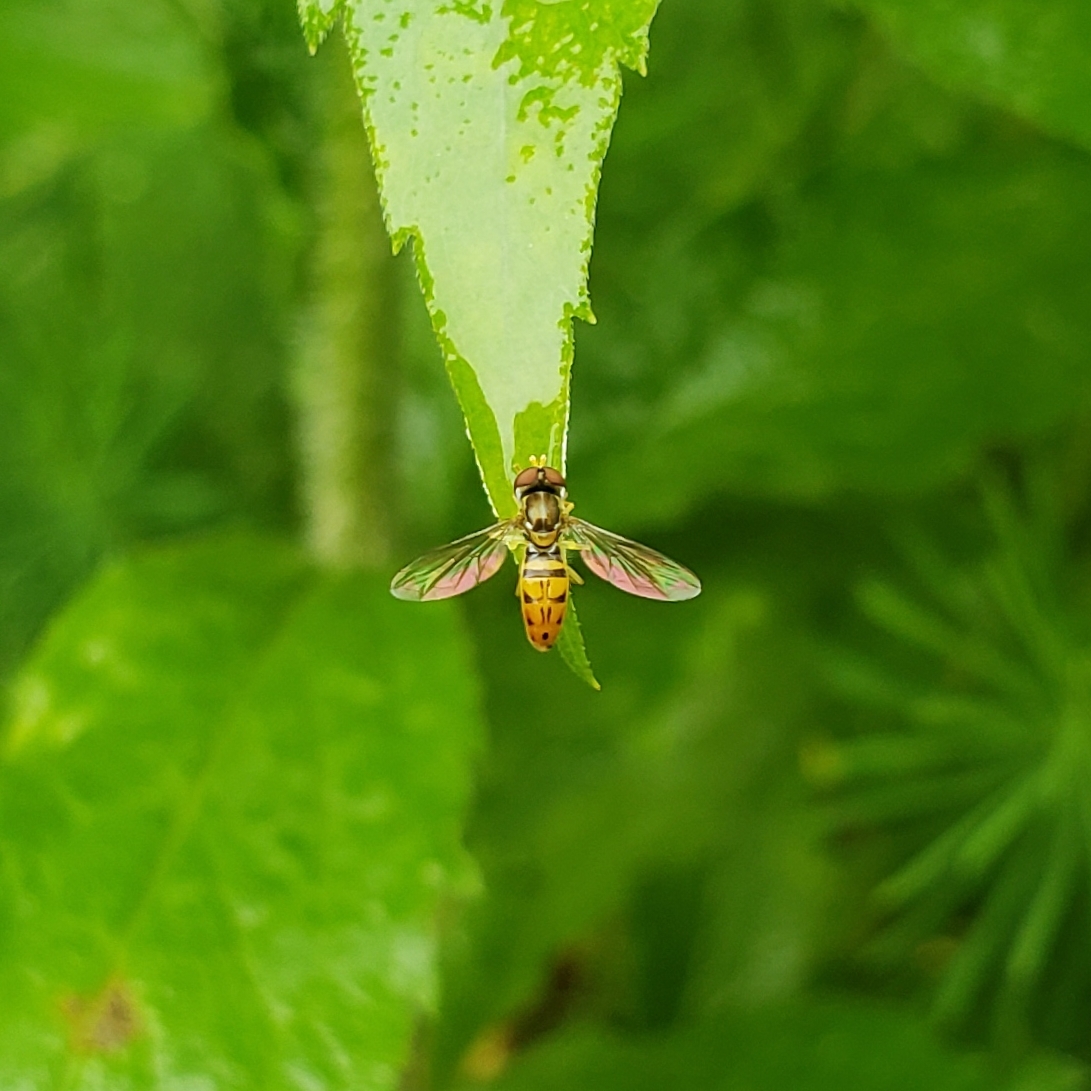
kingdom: Animalia
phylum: Arthropoda
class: Insecta
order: Diptera
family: Syrphidae
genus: Toxomerus
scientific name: Toxomerus marginatus
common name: Syrphid fly
